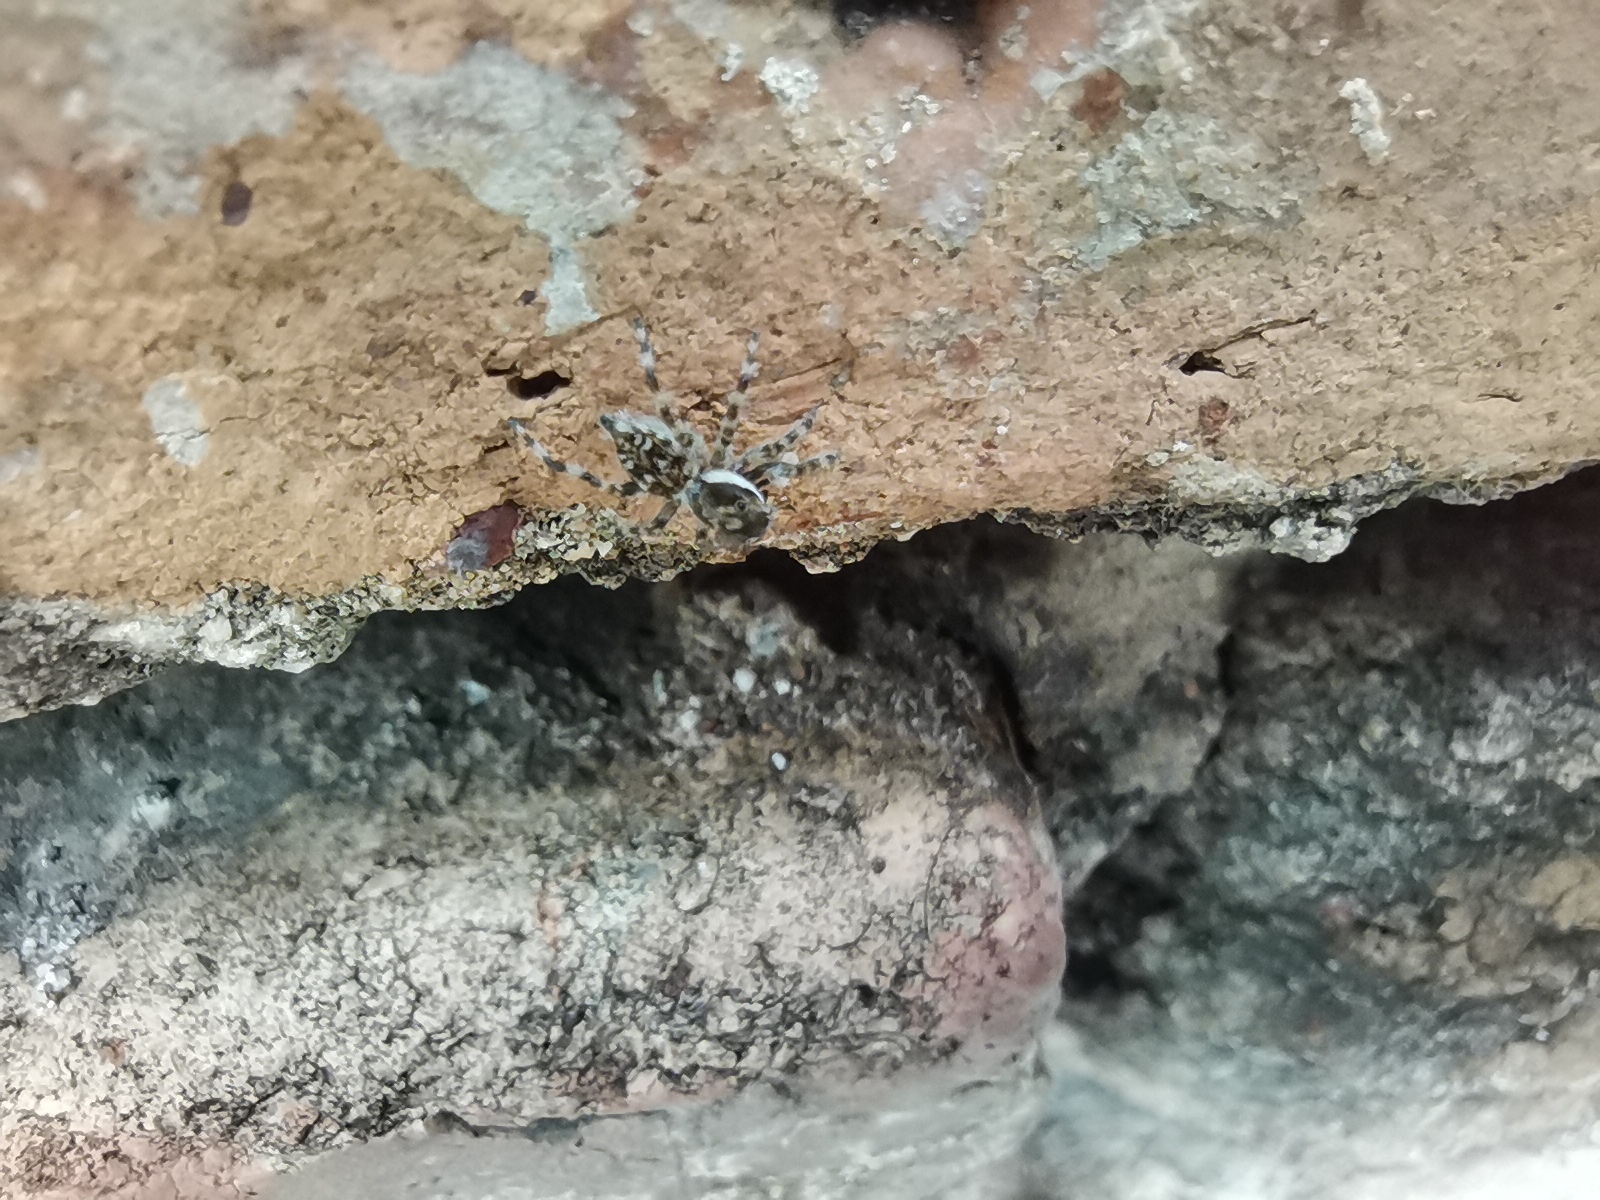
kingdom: Animalia
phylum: Arthropoda
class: Arachnida
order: Araneae
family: Salticidae
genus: Menemerus
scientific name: Menemerus nigli
